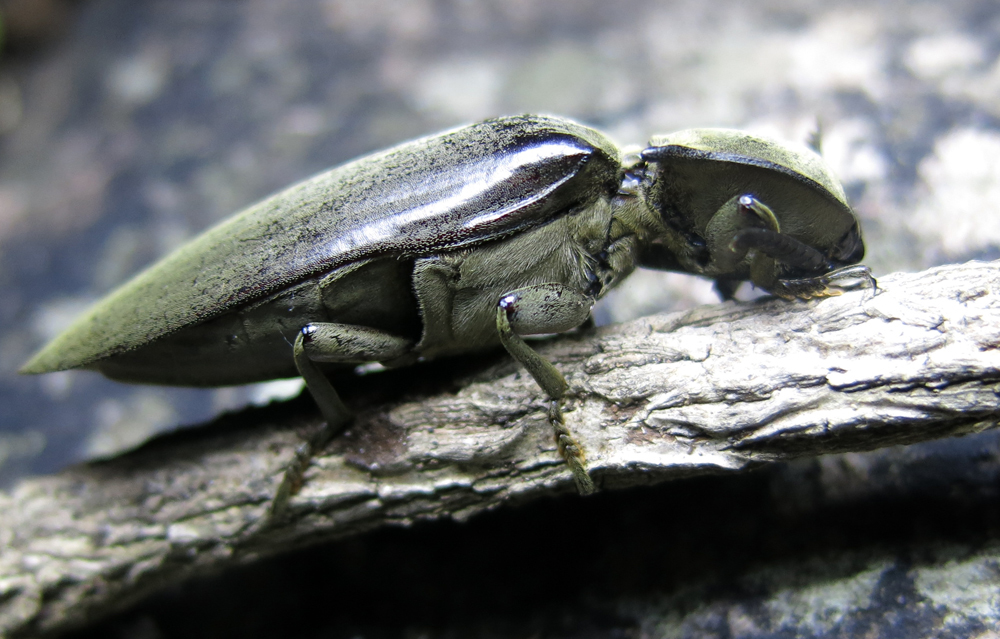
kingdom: Animalia
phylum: Arthropoda
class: Insecta
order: Coleoptera
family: Elateridae
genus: Tetralobus
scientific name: Tetralobus flabellicornis
